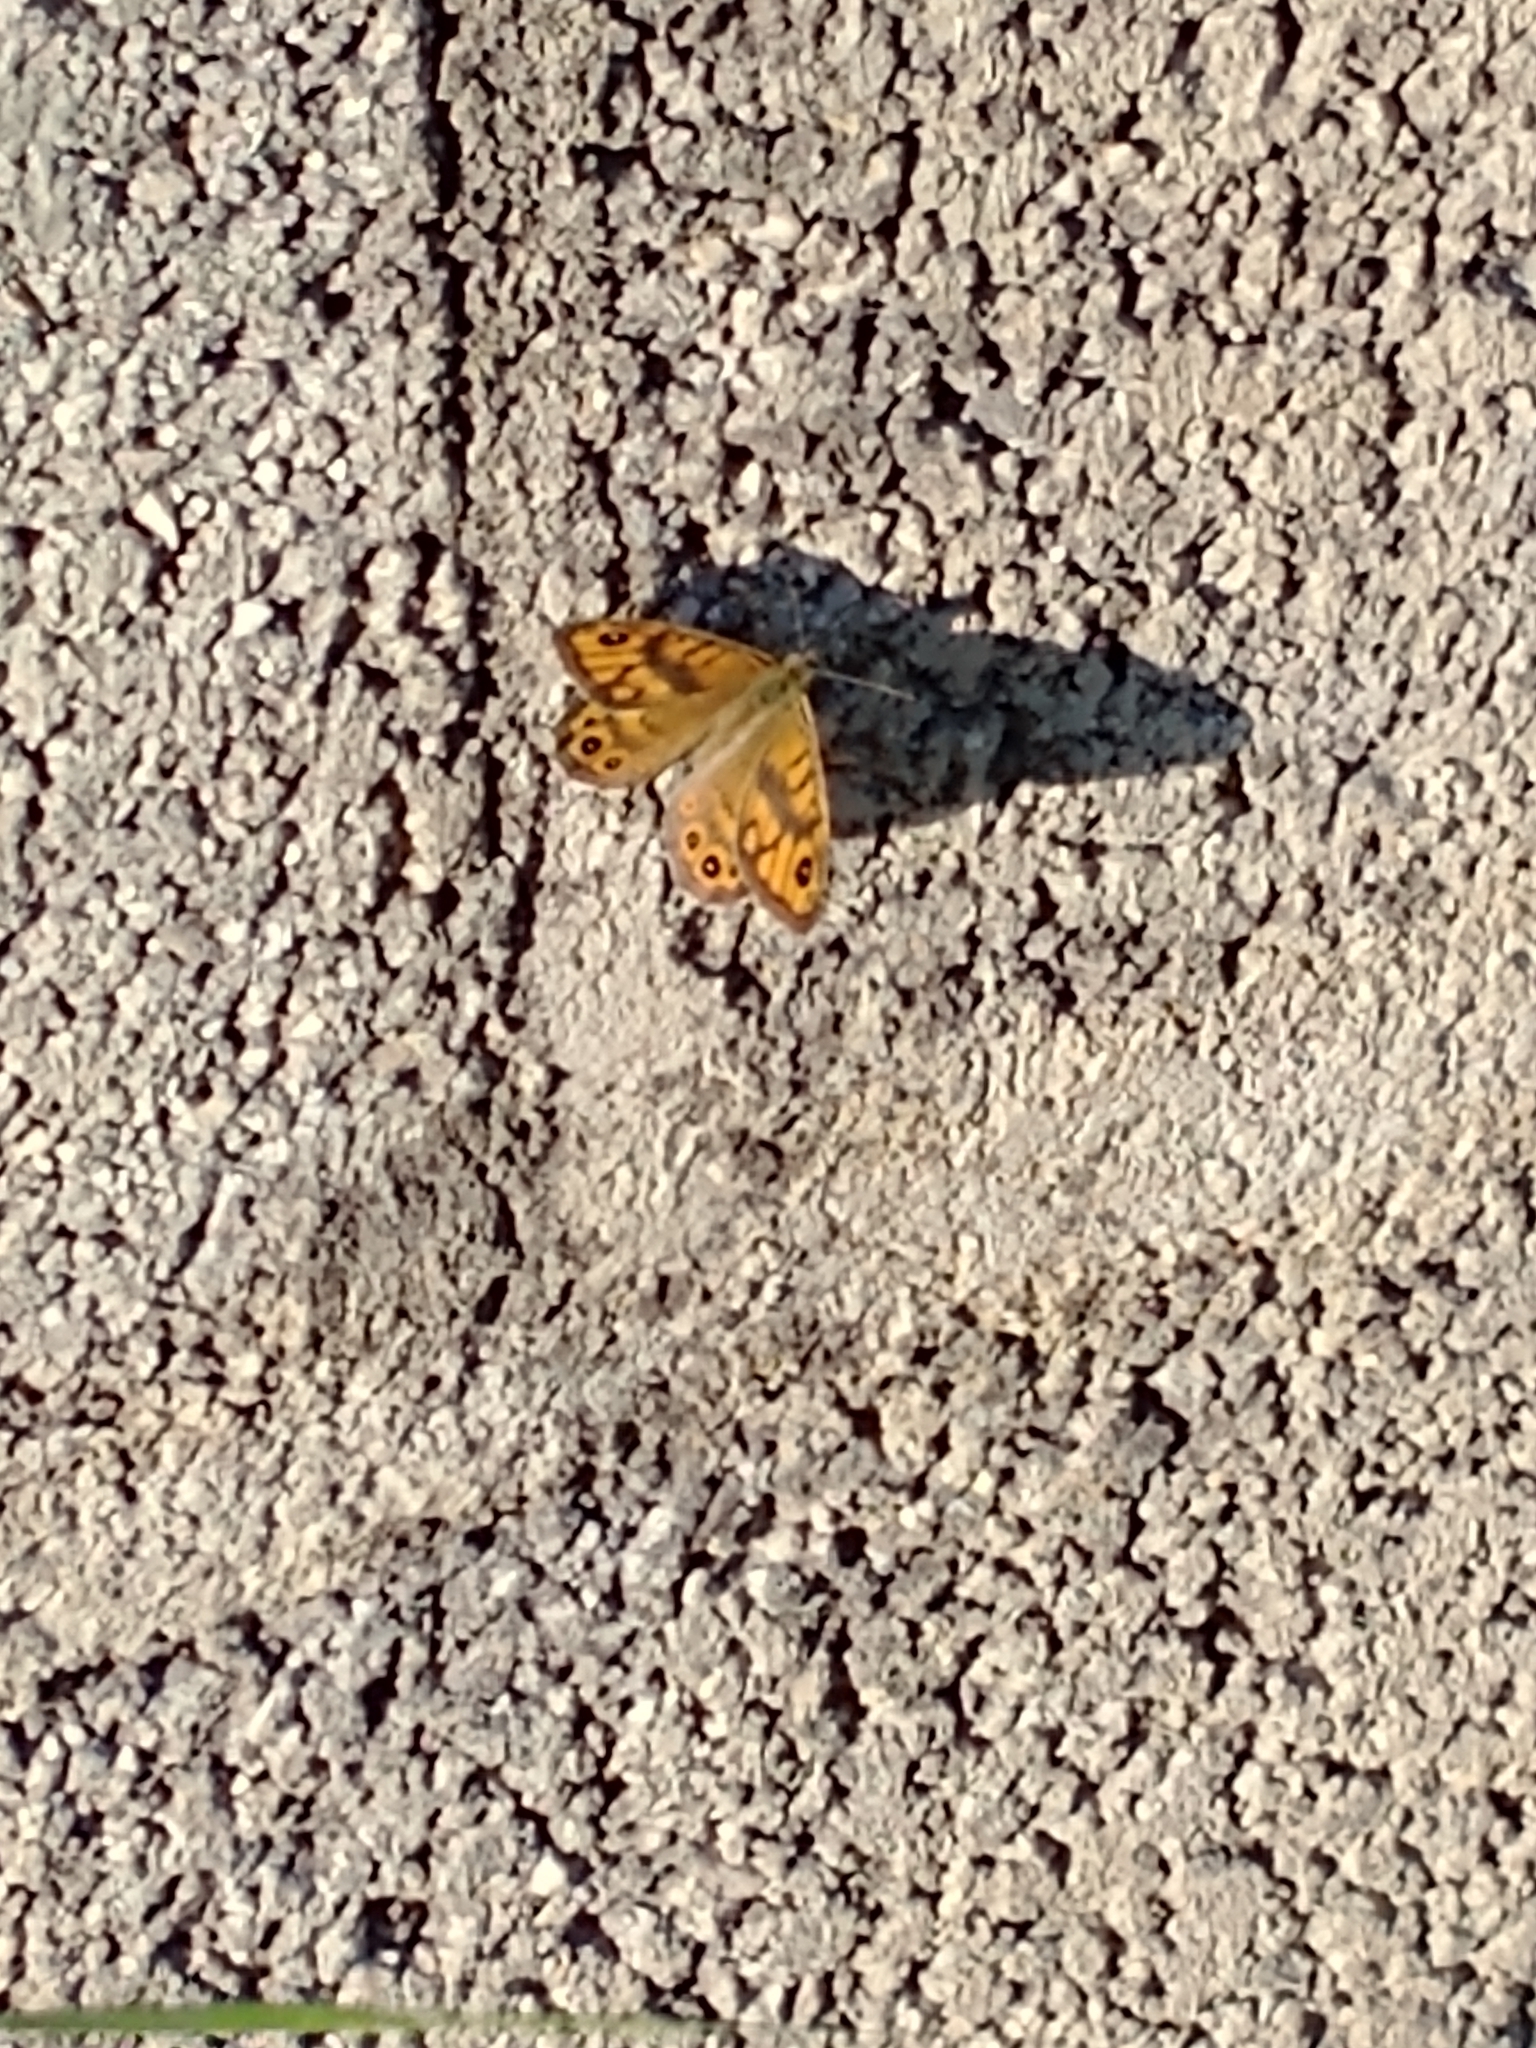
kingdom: Animalia
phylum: Arthropoda
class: Insecta
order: Lepidoptera
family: Nymphalidae
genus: Pararge
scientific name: Pararge Lasiommata megera
